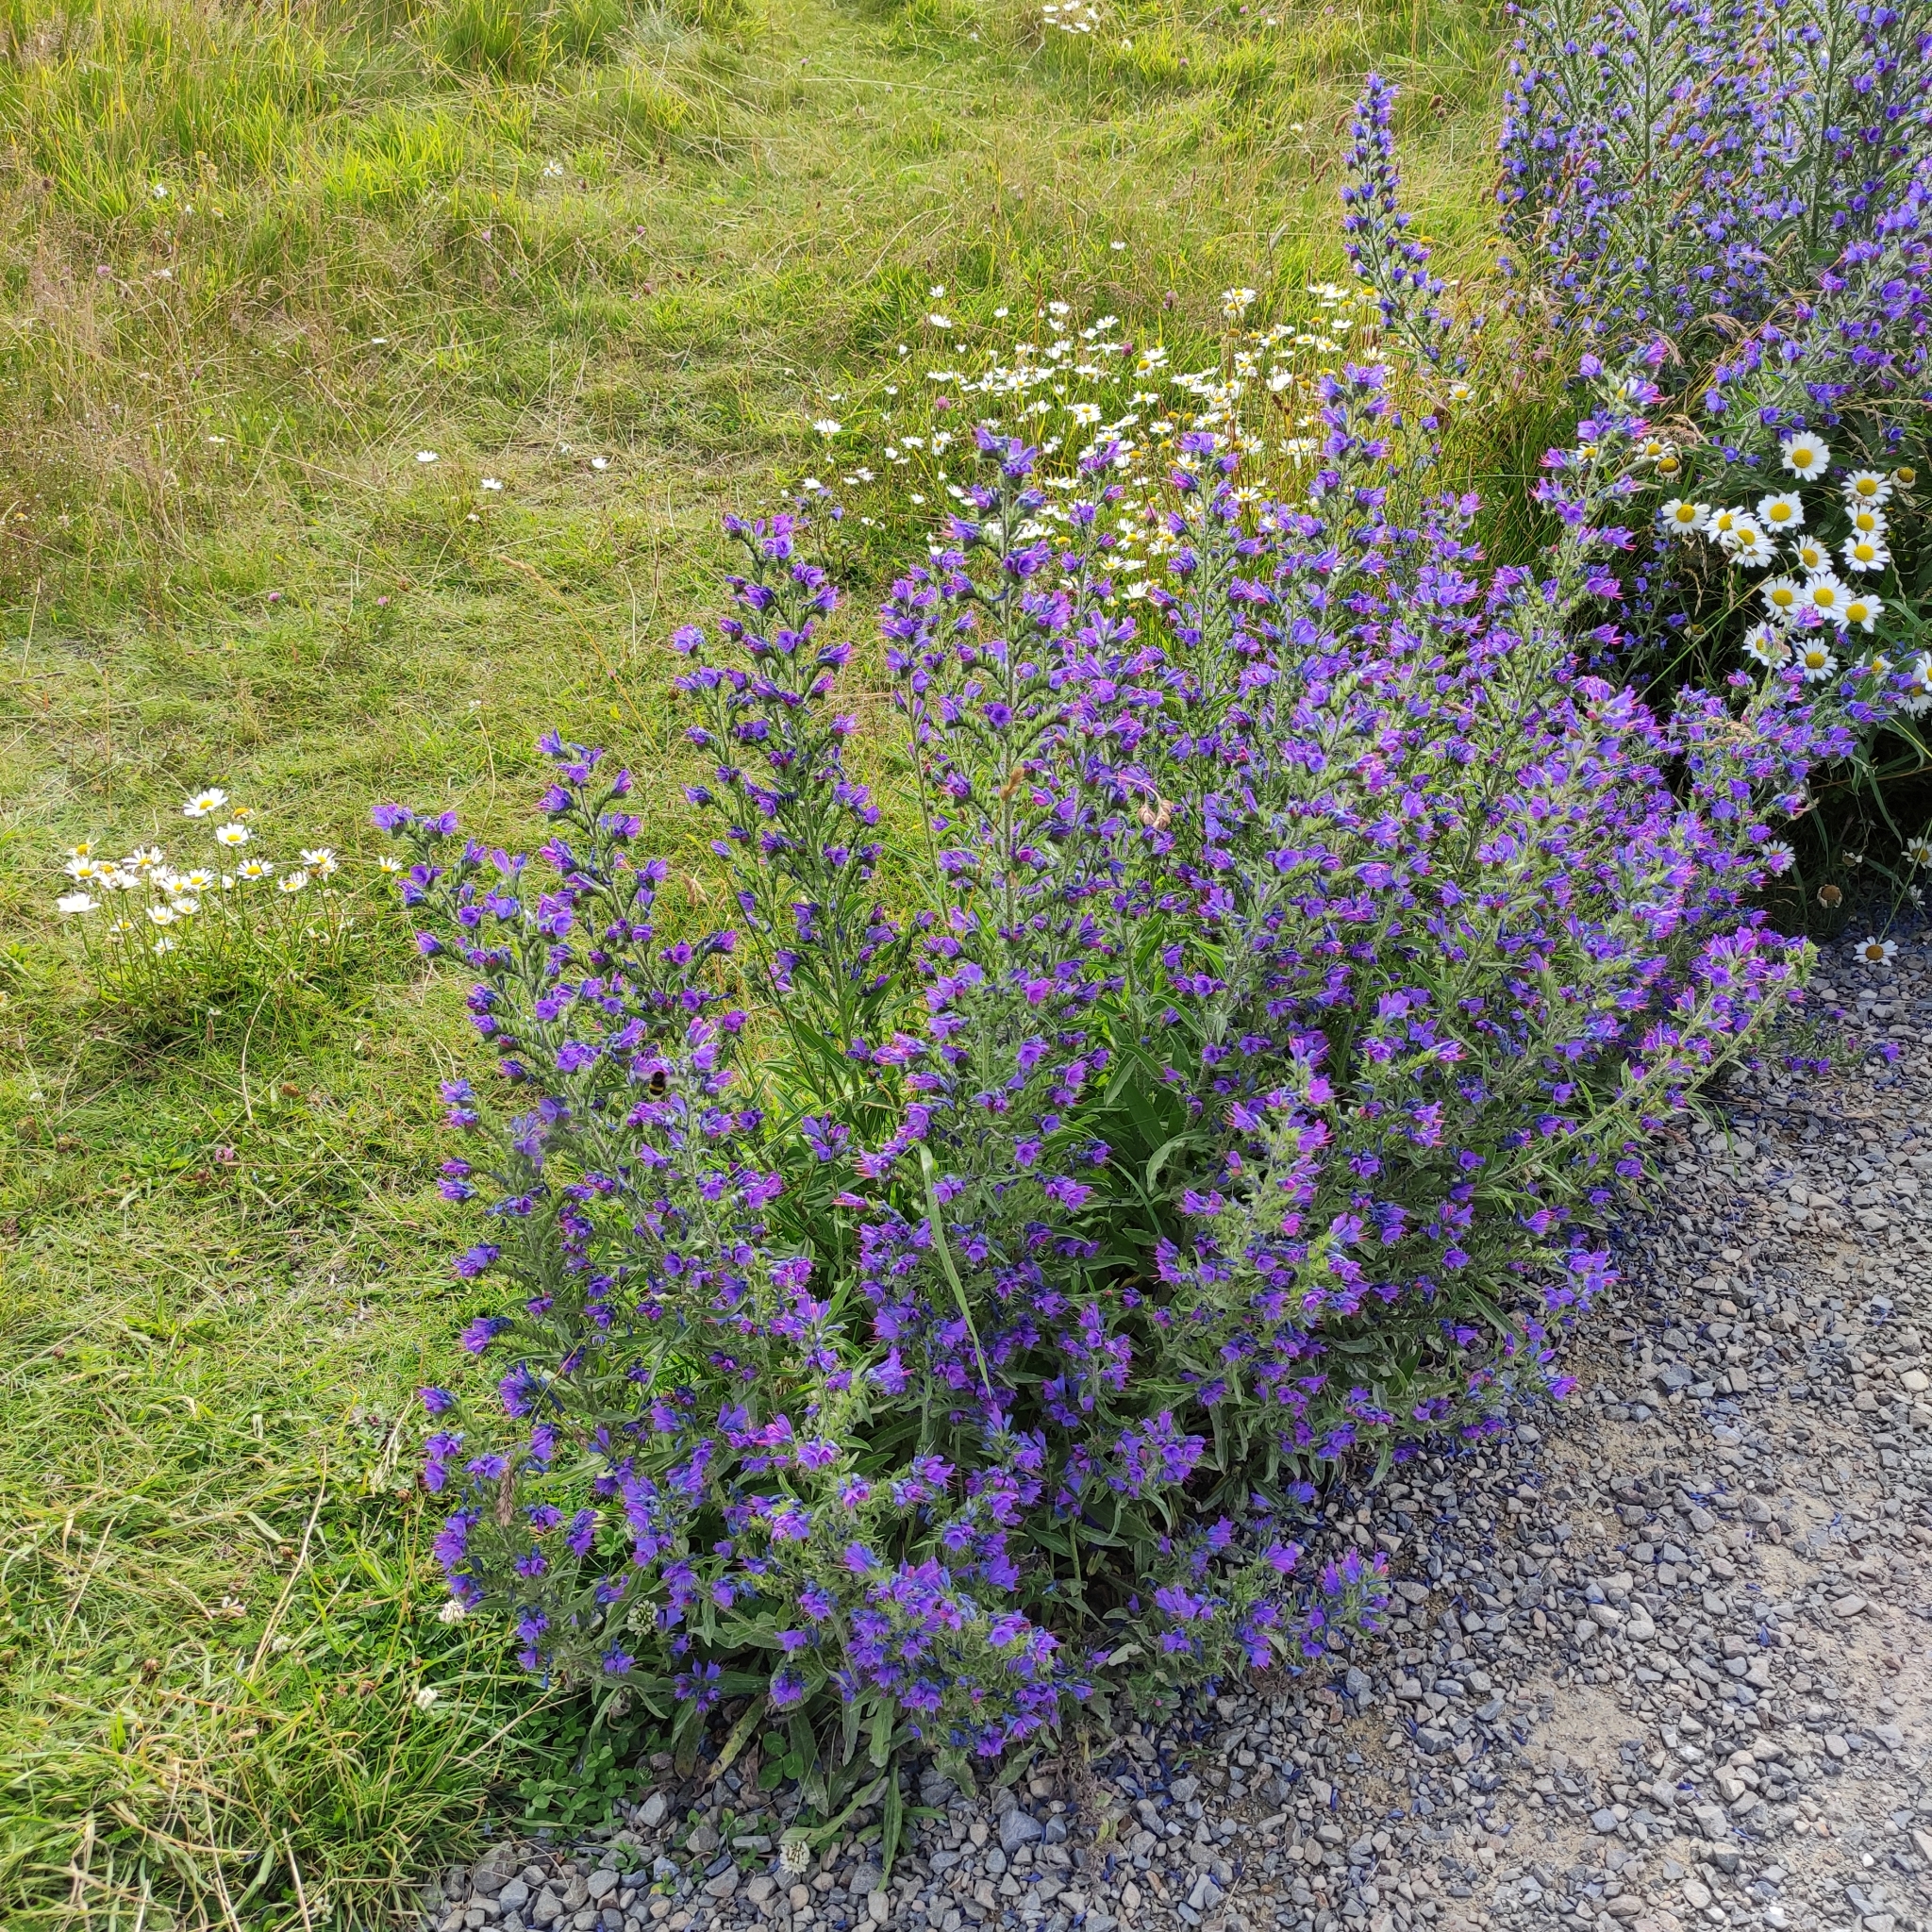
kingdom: Plantae
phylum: Tracheophyta
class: Magnoliopsida
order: Boraginales
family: Boraginaceae
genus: Echium
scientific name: Echium vulgare
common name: Common viper's bugloss
